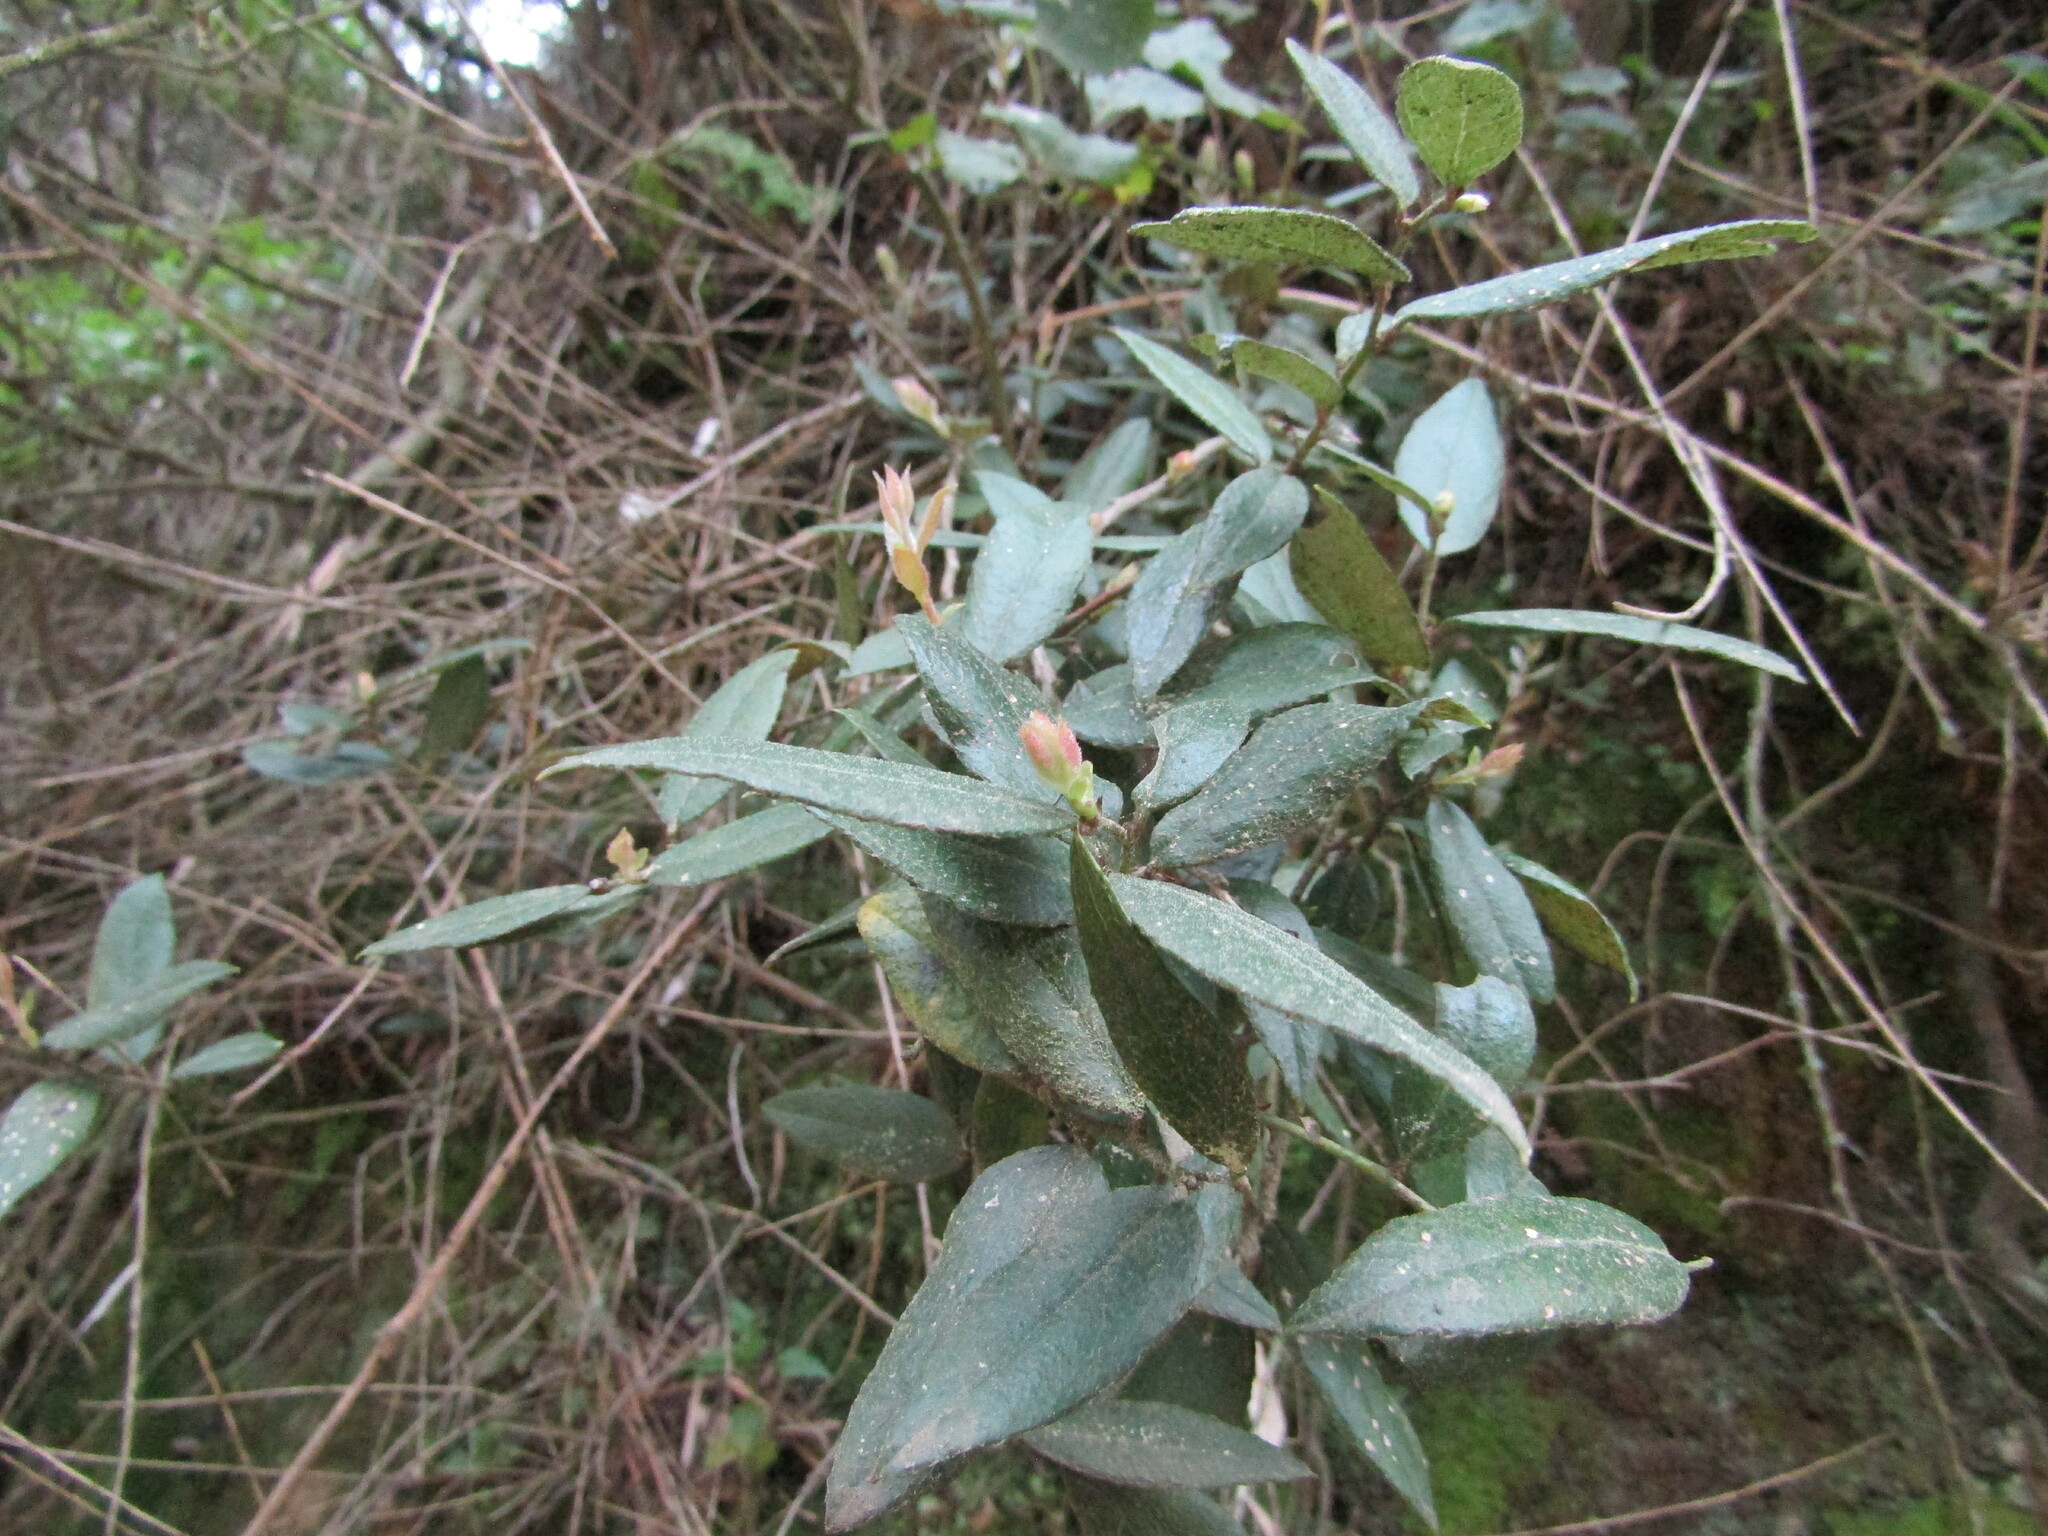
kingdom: Plantae
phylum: Tracheophyta
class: Magnoliopsida
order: Ericales
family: Ericaceae
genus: Gaultheria
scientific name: Gaultheria insana
